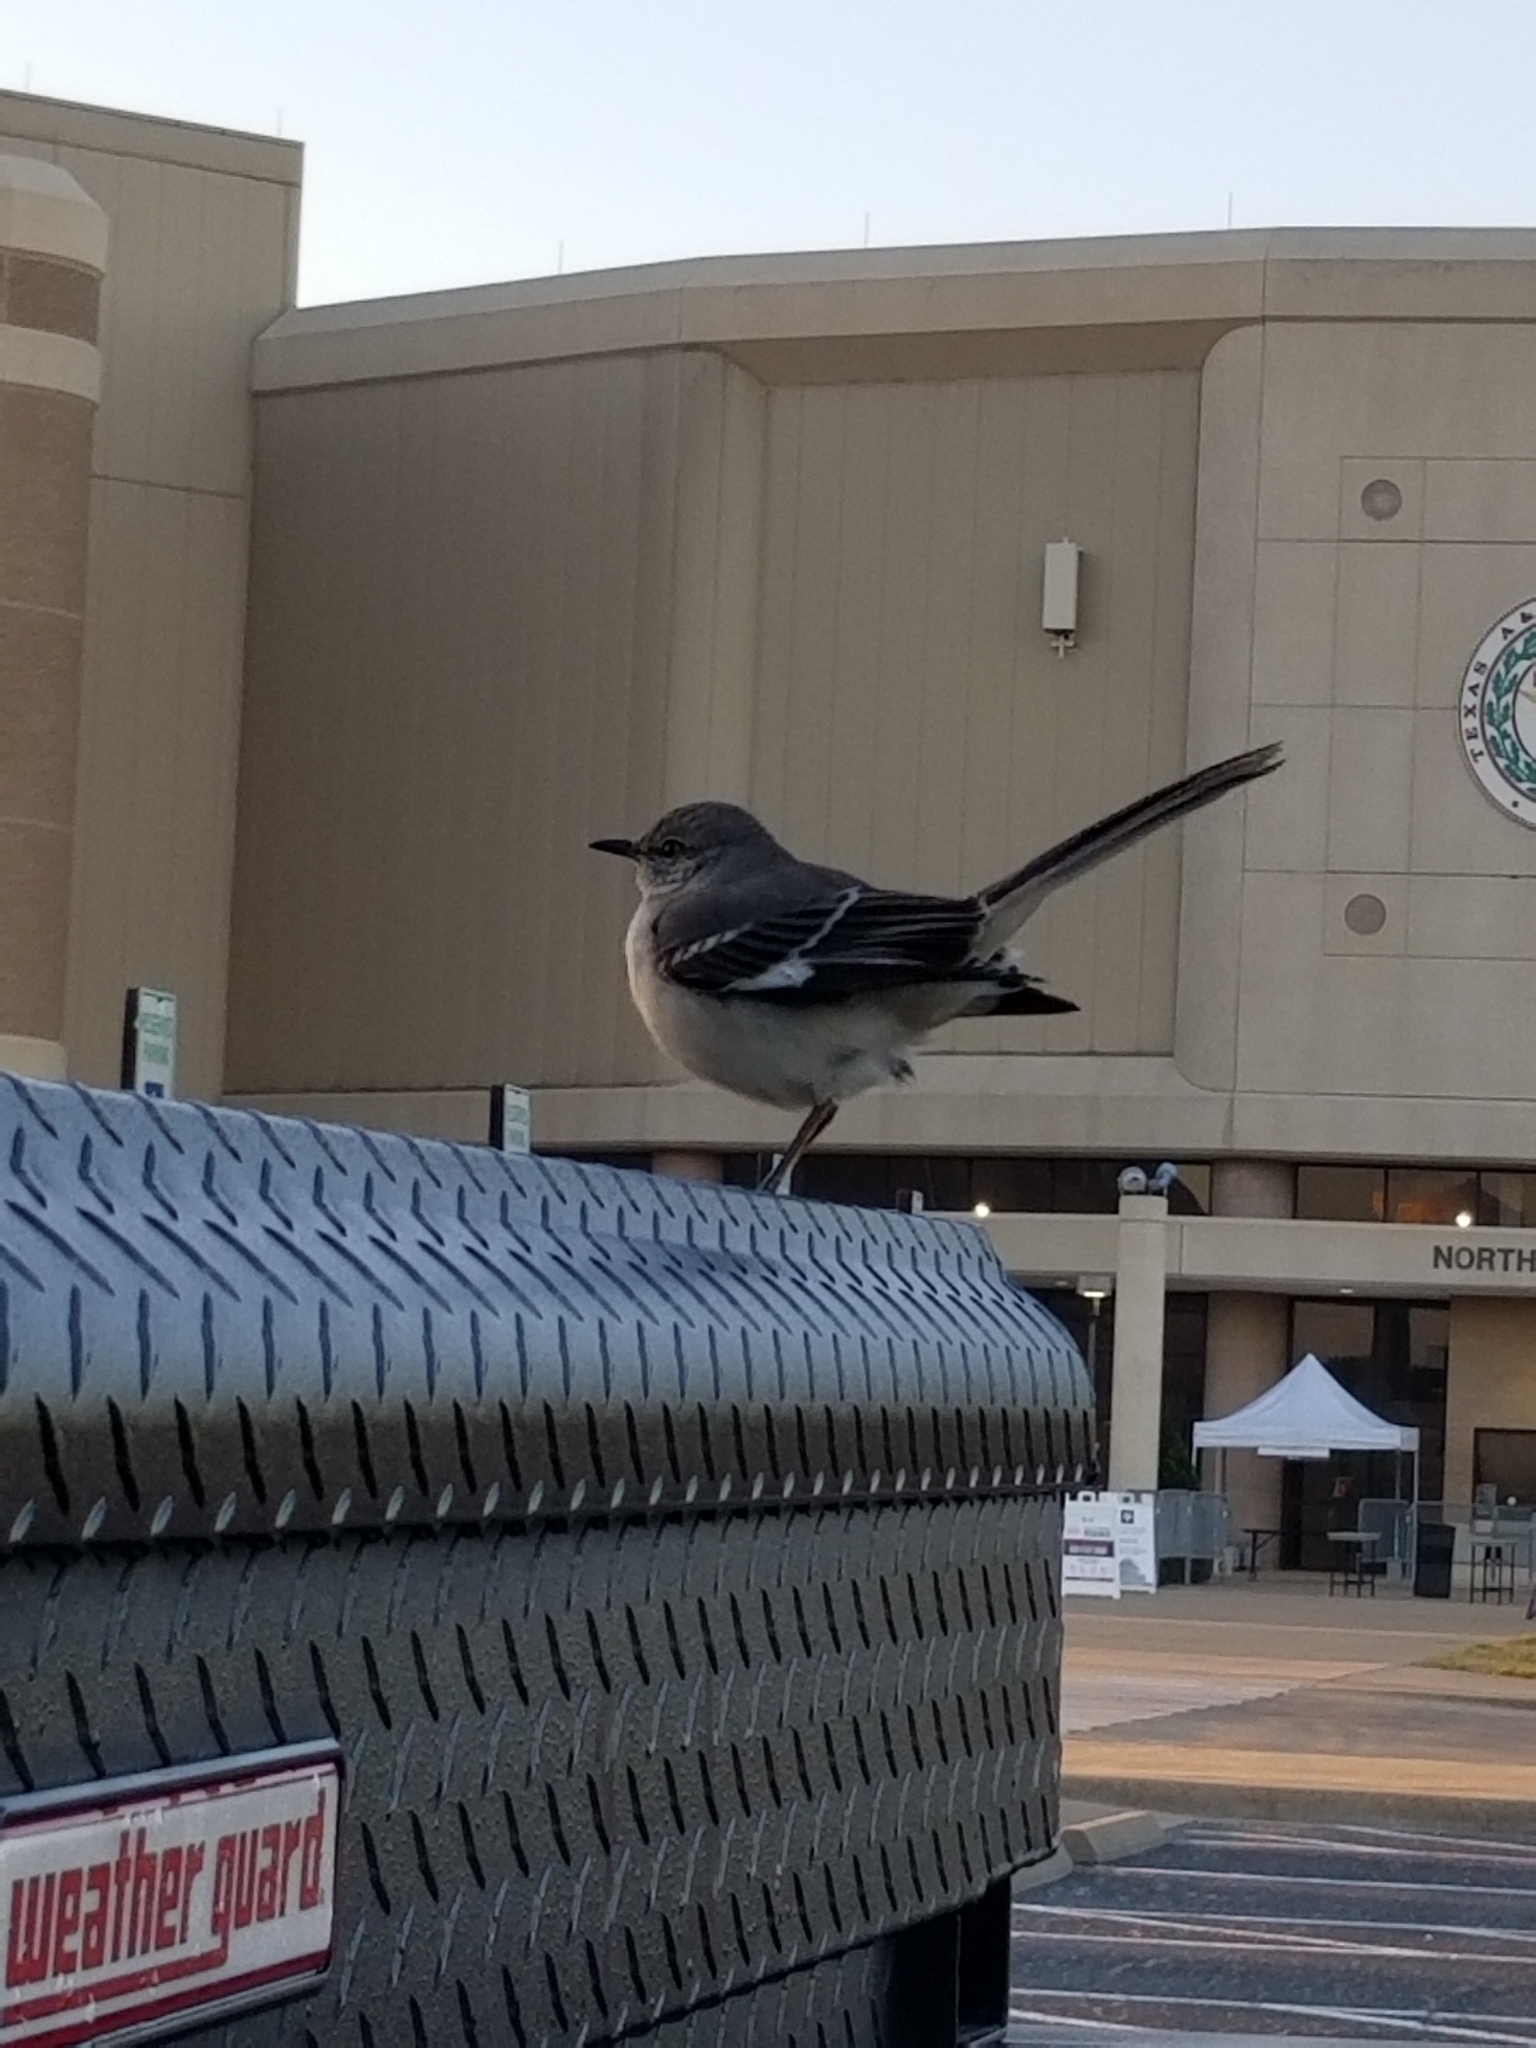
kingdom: Animalia
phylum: Chordata
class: Aves
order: Passeriformes
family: Mimidae
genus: Mimus
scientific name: Mimus polyglottos
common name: Northern mockingbird
